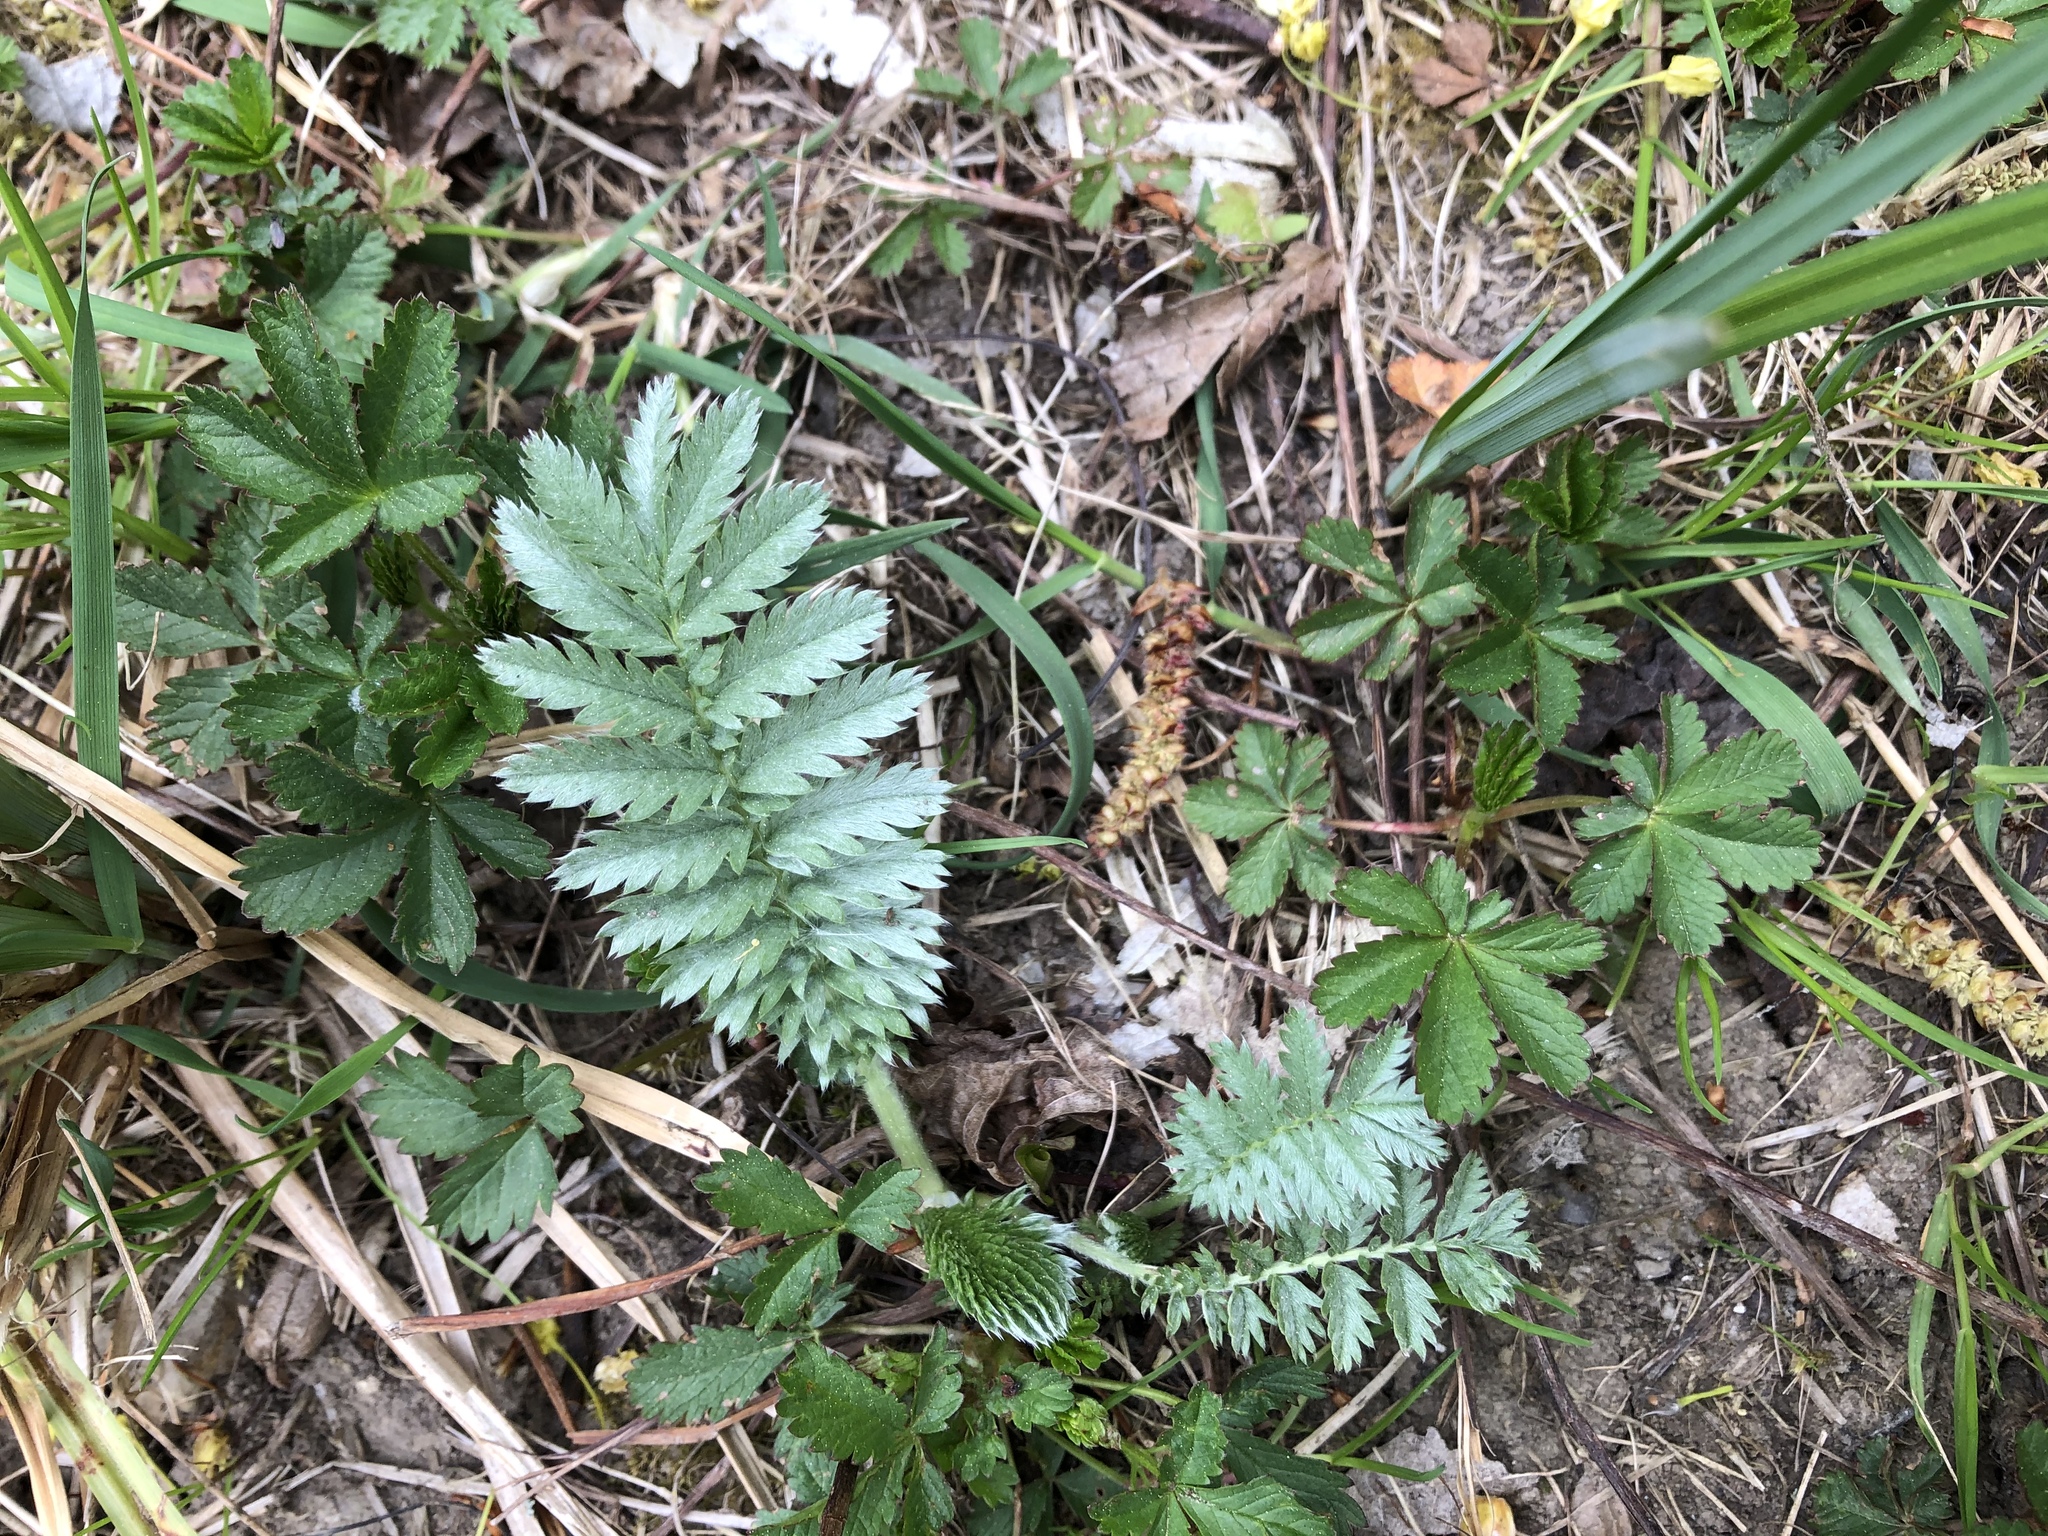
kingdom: Plantae
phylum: Tracheophyta
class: Magnoliopsida
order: Rosales
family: Rosaceae
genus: Argentina
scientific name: Argentina anserina
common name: Common silverweed
